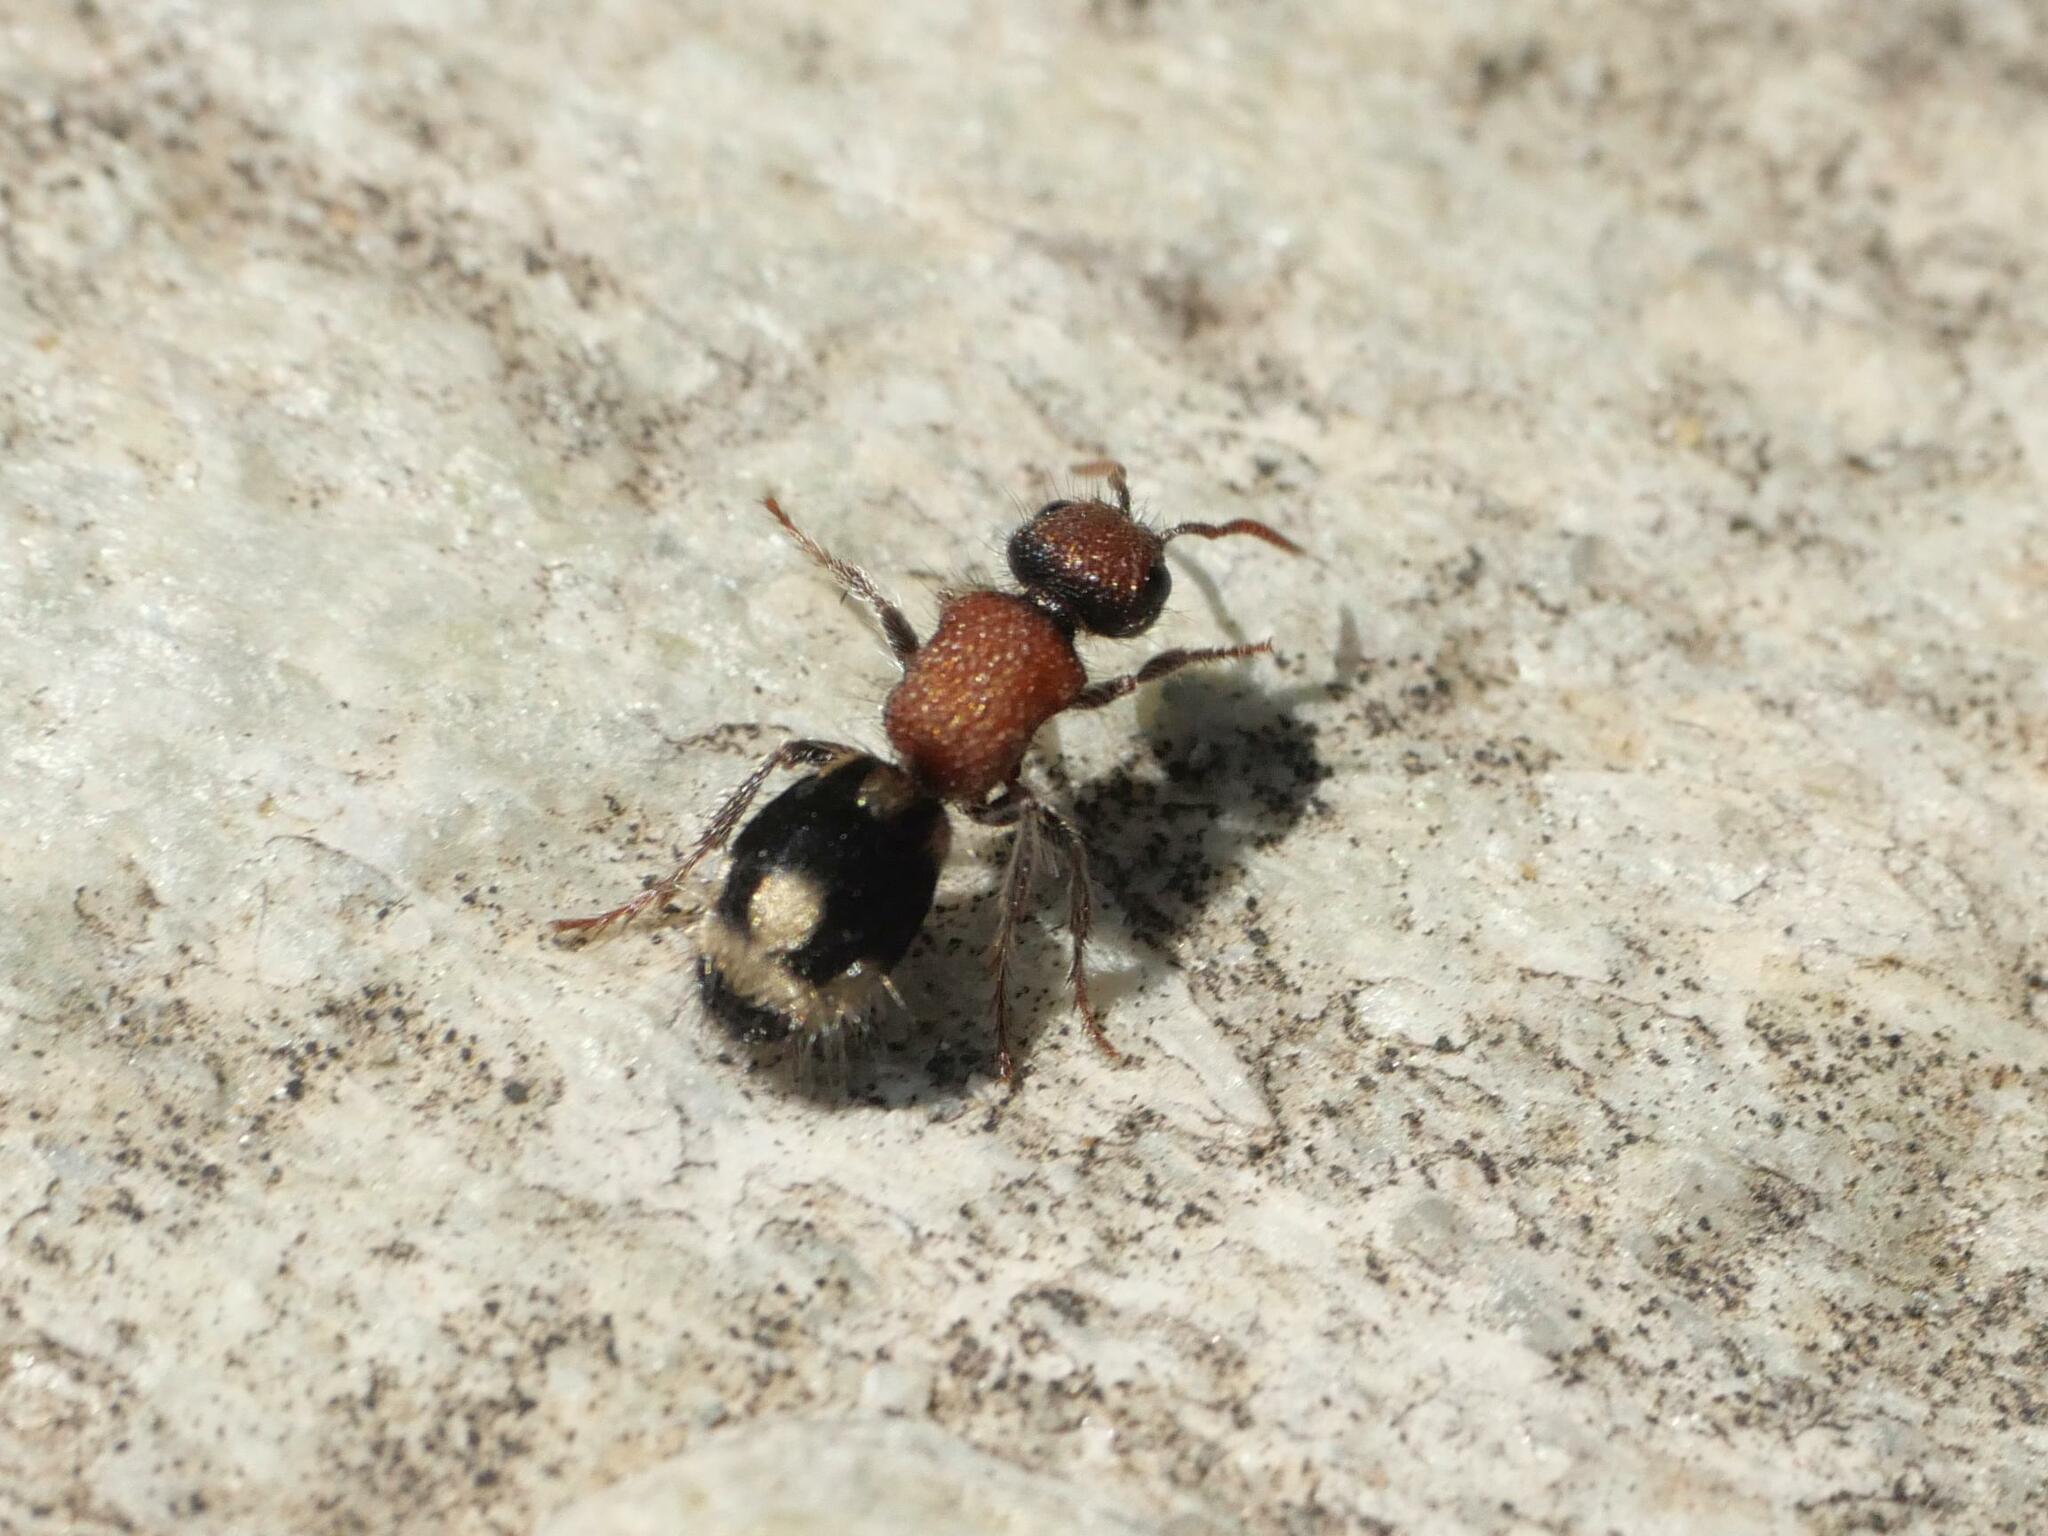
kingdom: Animalia
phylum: Arthropoda
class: Insecta
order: Hymenoptera
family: Mutillidae
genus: Ronisia
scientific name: Ronisia brutia
